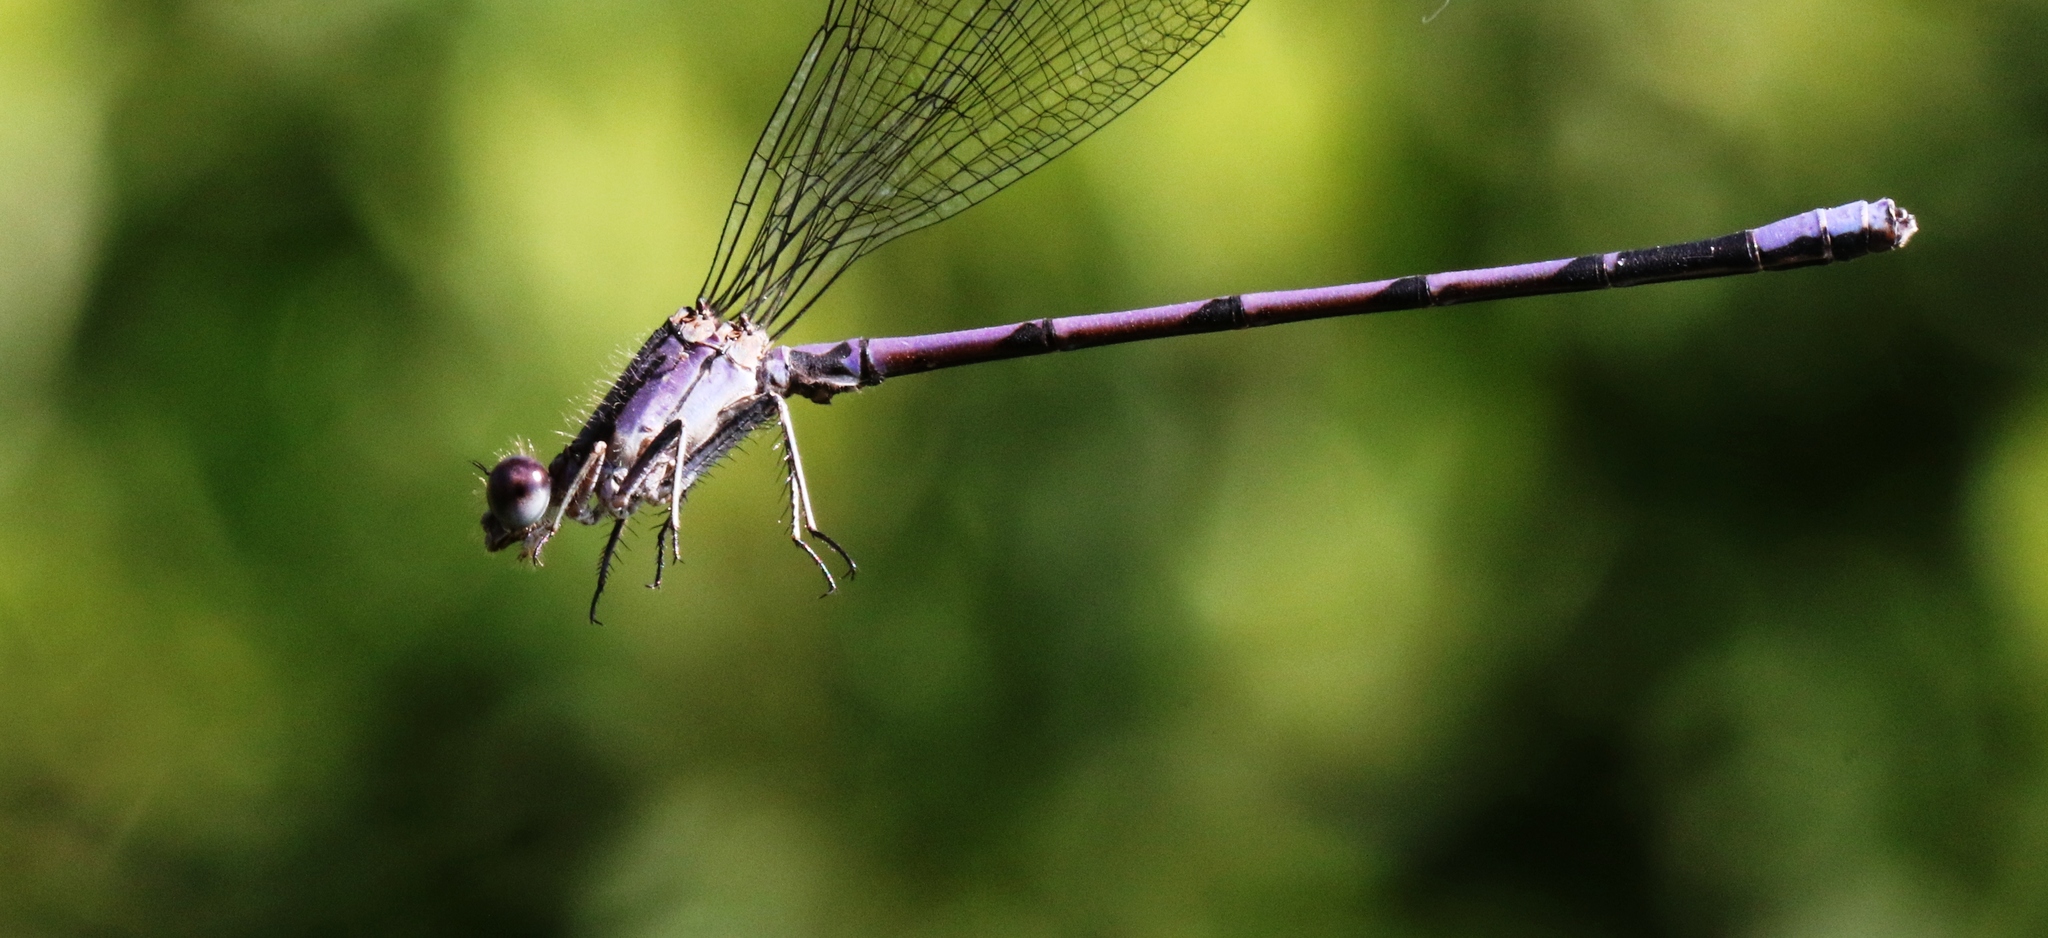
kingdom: Animalia
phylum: Arthropoda
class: Insecta
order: Odonata
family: Coenagrionidae
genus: Argia
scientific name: Argia fumipennis
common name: Variable dancer
